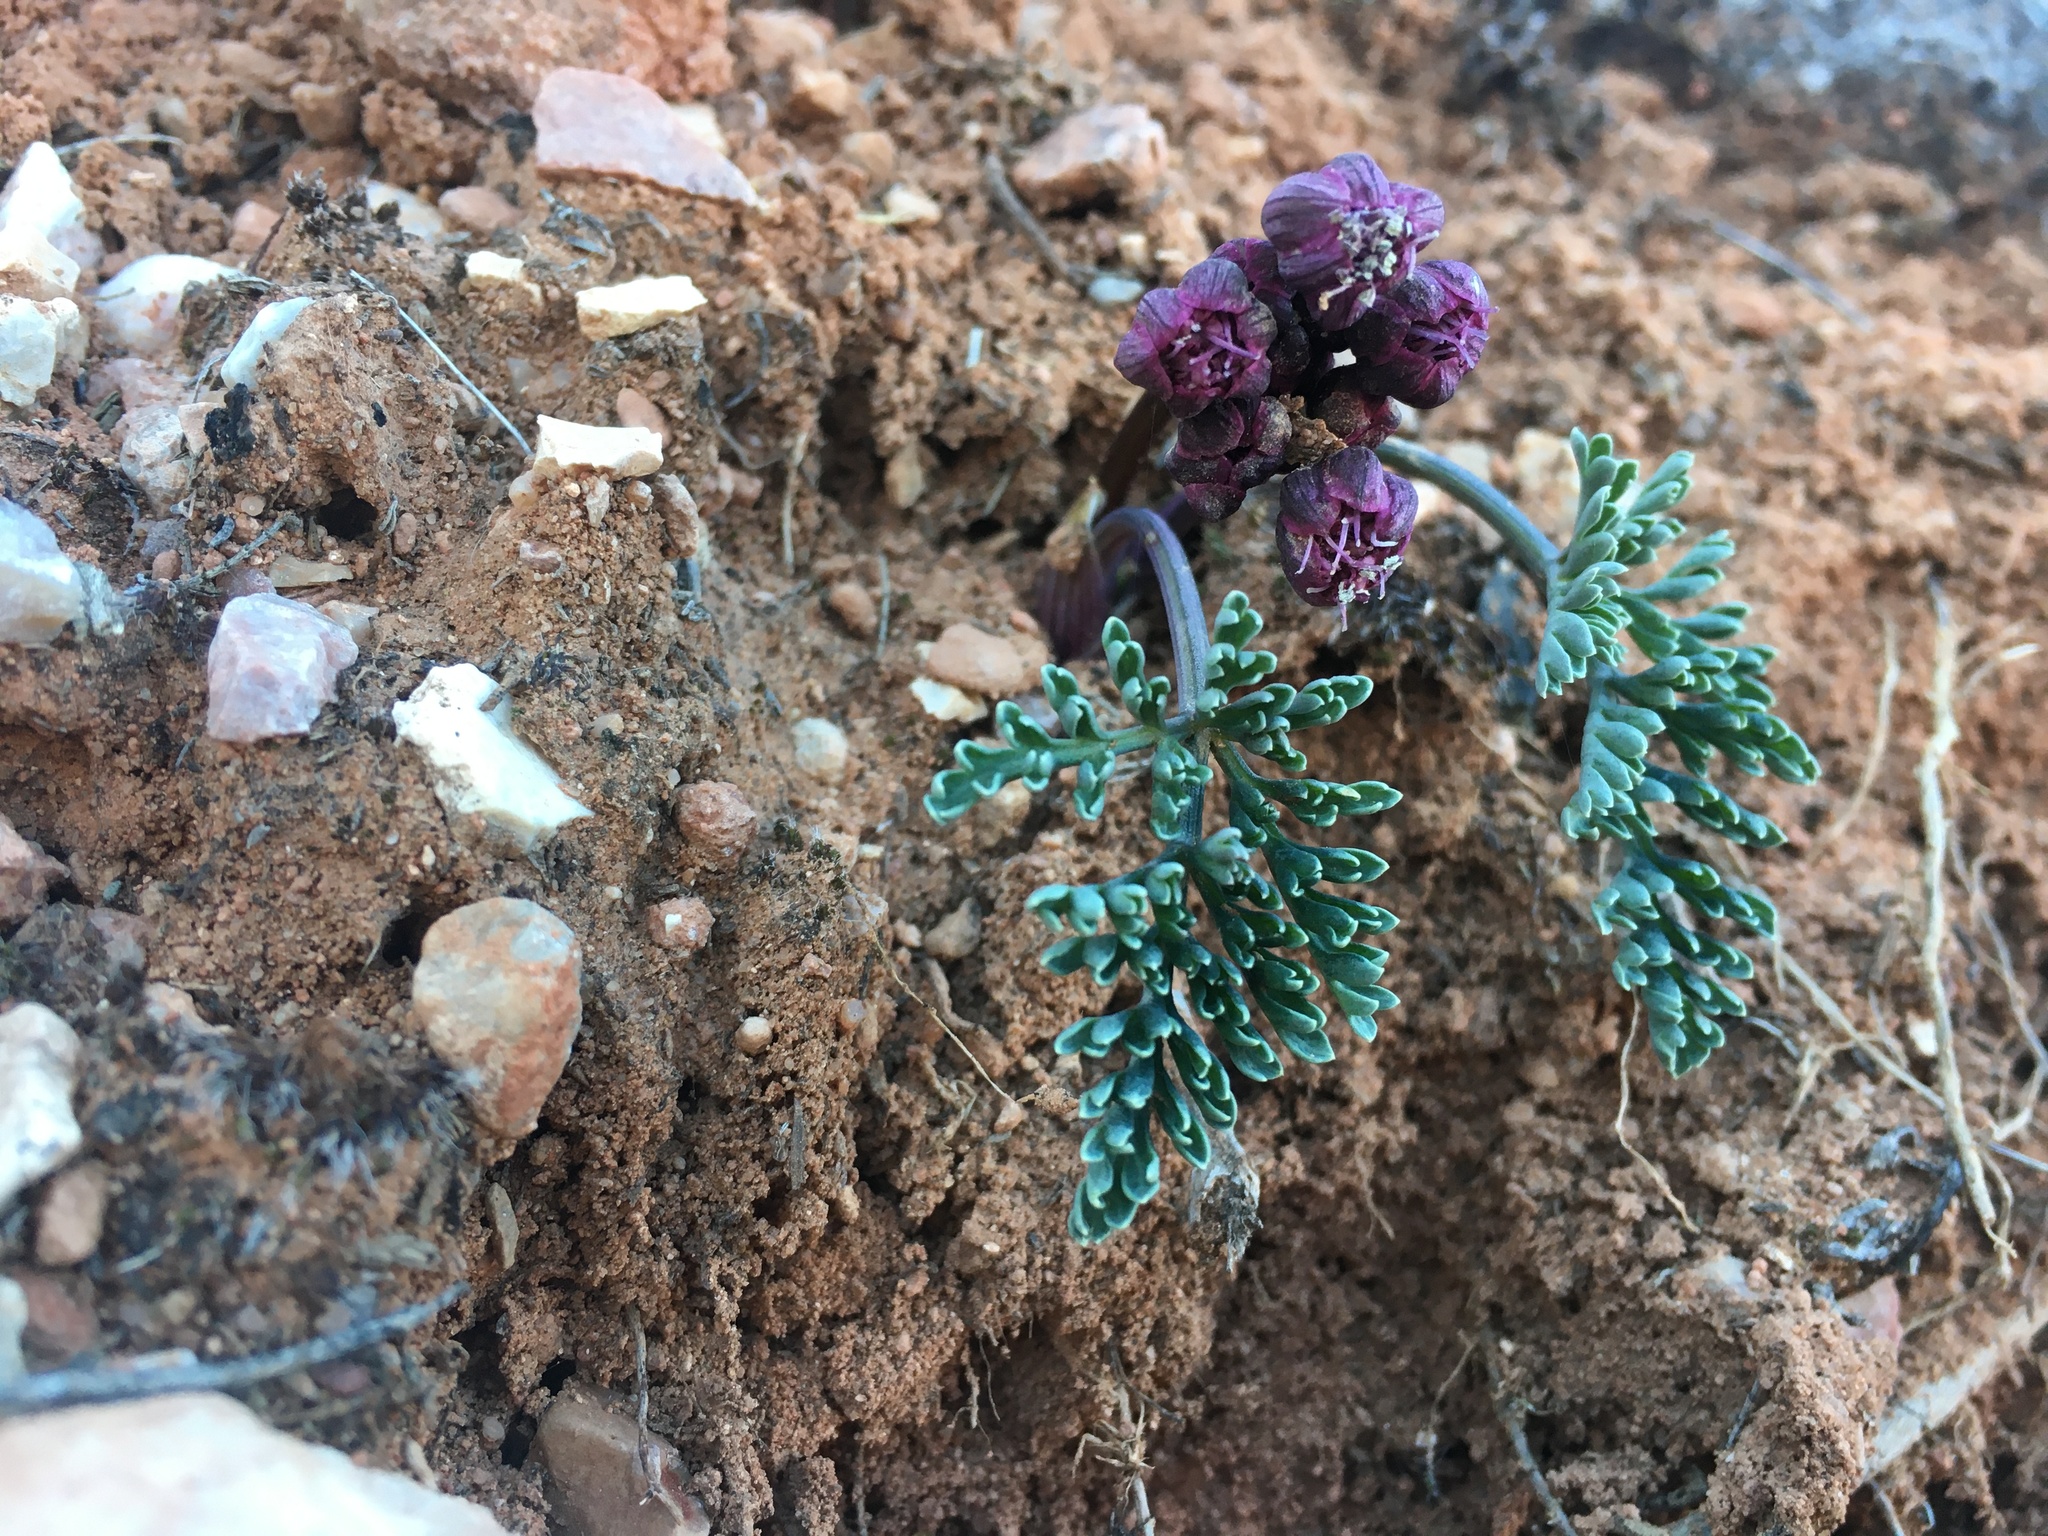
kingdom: Plantae
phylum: Tracheophyta
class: Magnoliopsida
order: Apiales
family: Apiaceae
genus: Vesper
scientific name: Vesper multinervatus
